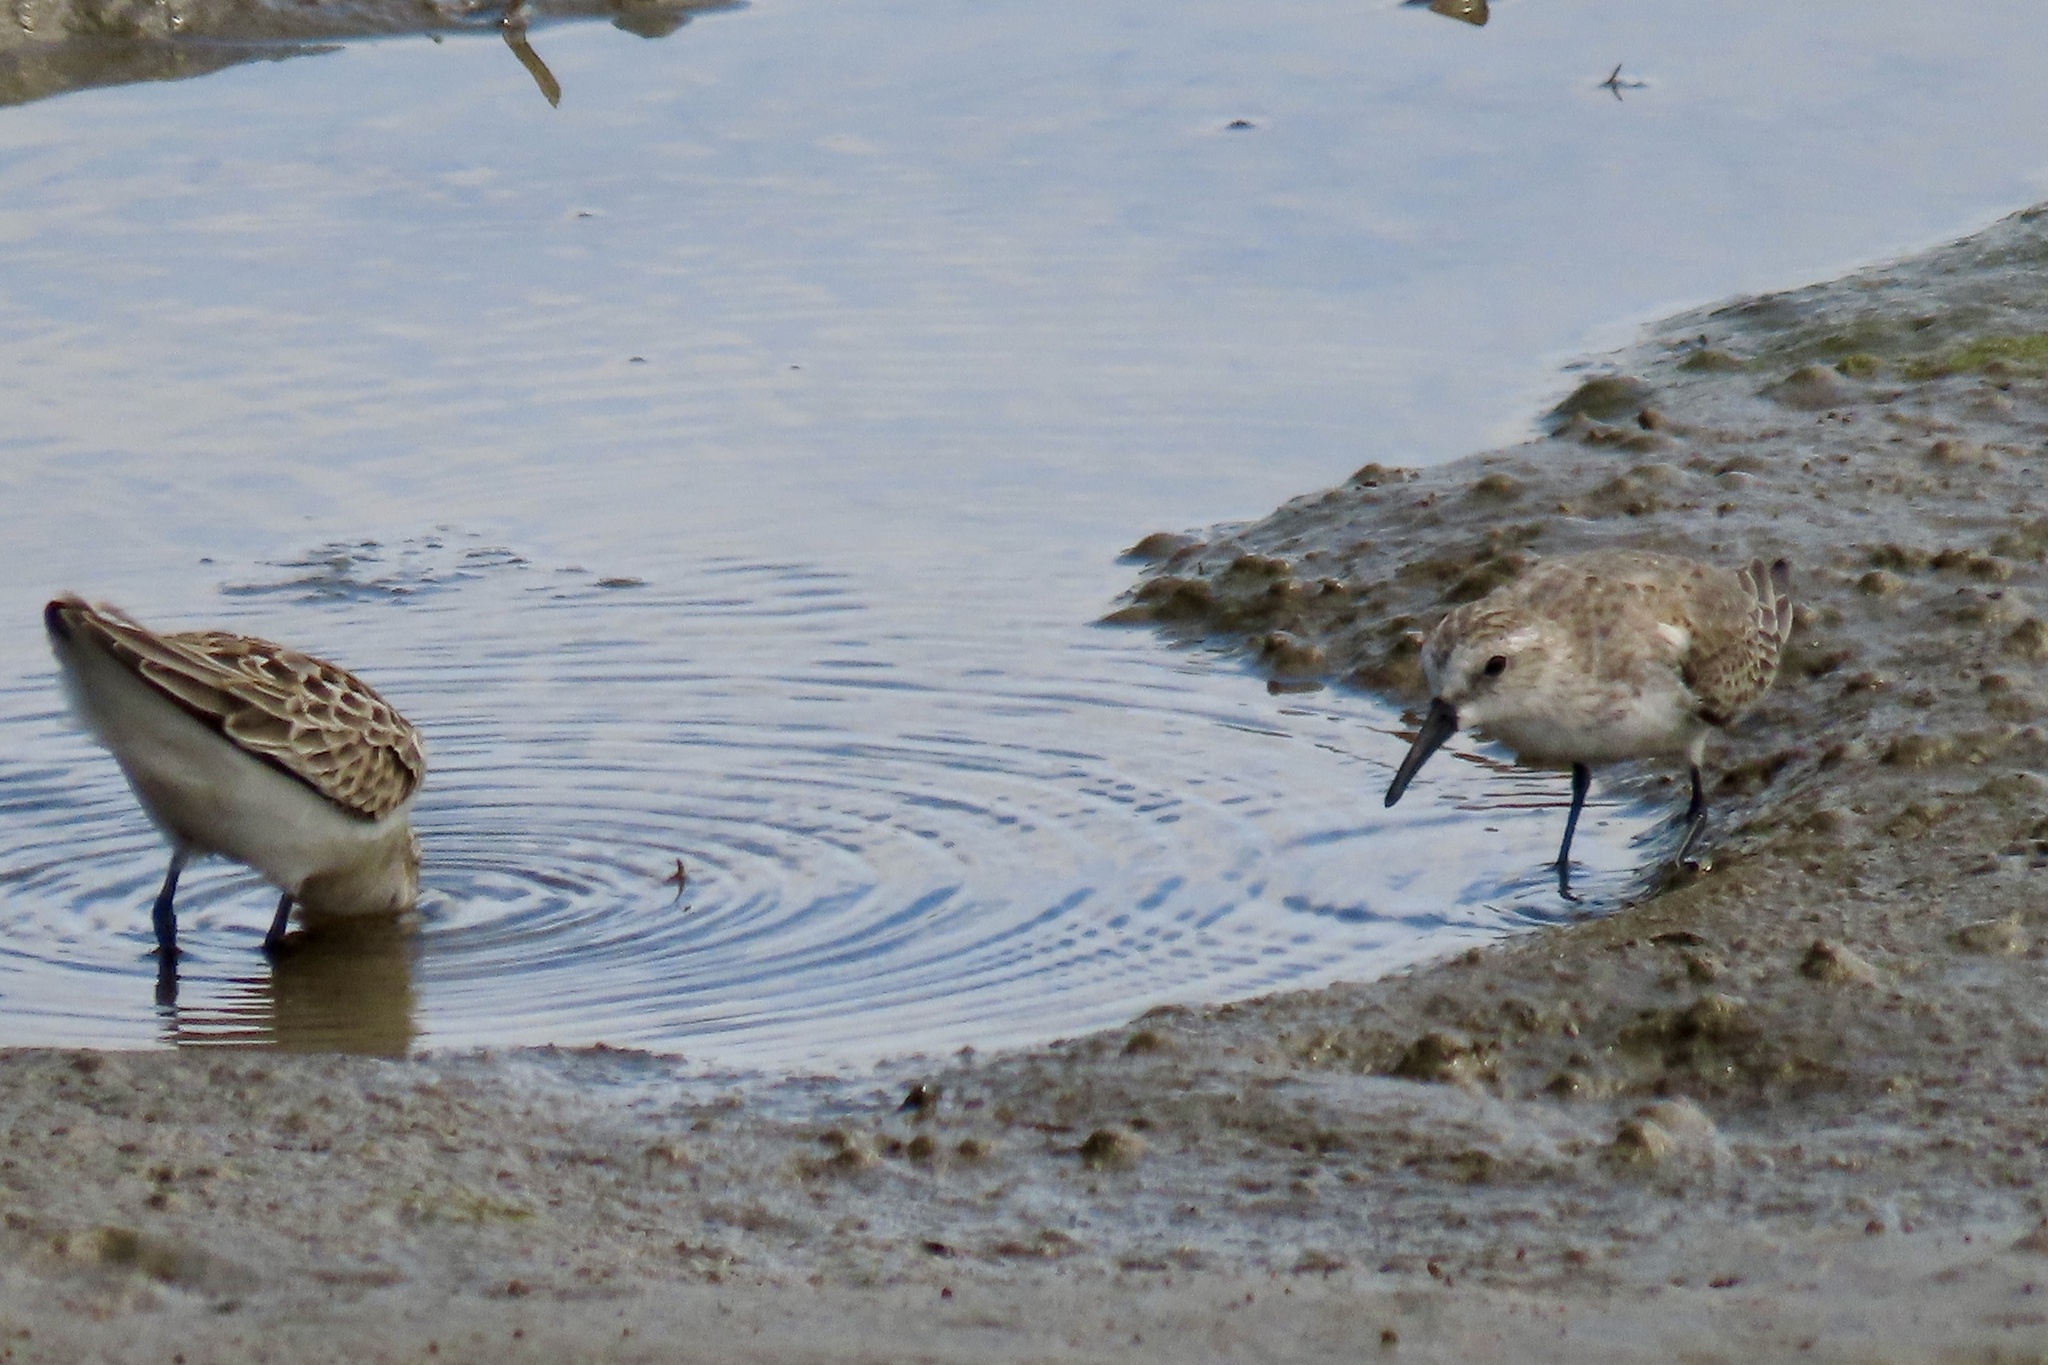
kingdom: Animalia
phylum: Chordata
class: Aves
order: Charadriiformes
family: Scolopacidae
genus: Calidris
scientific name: Calidris mauri
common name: Western sandpiper
